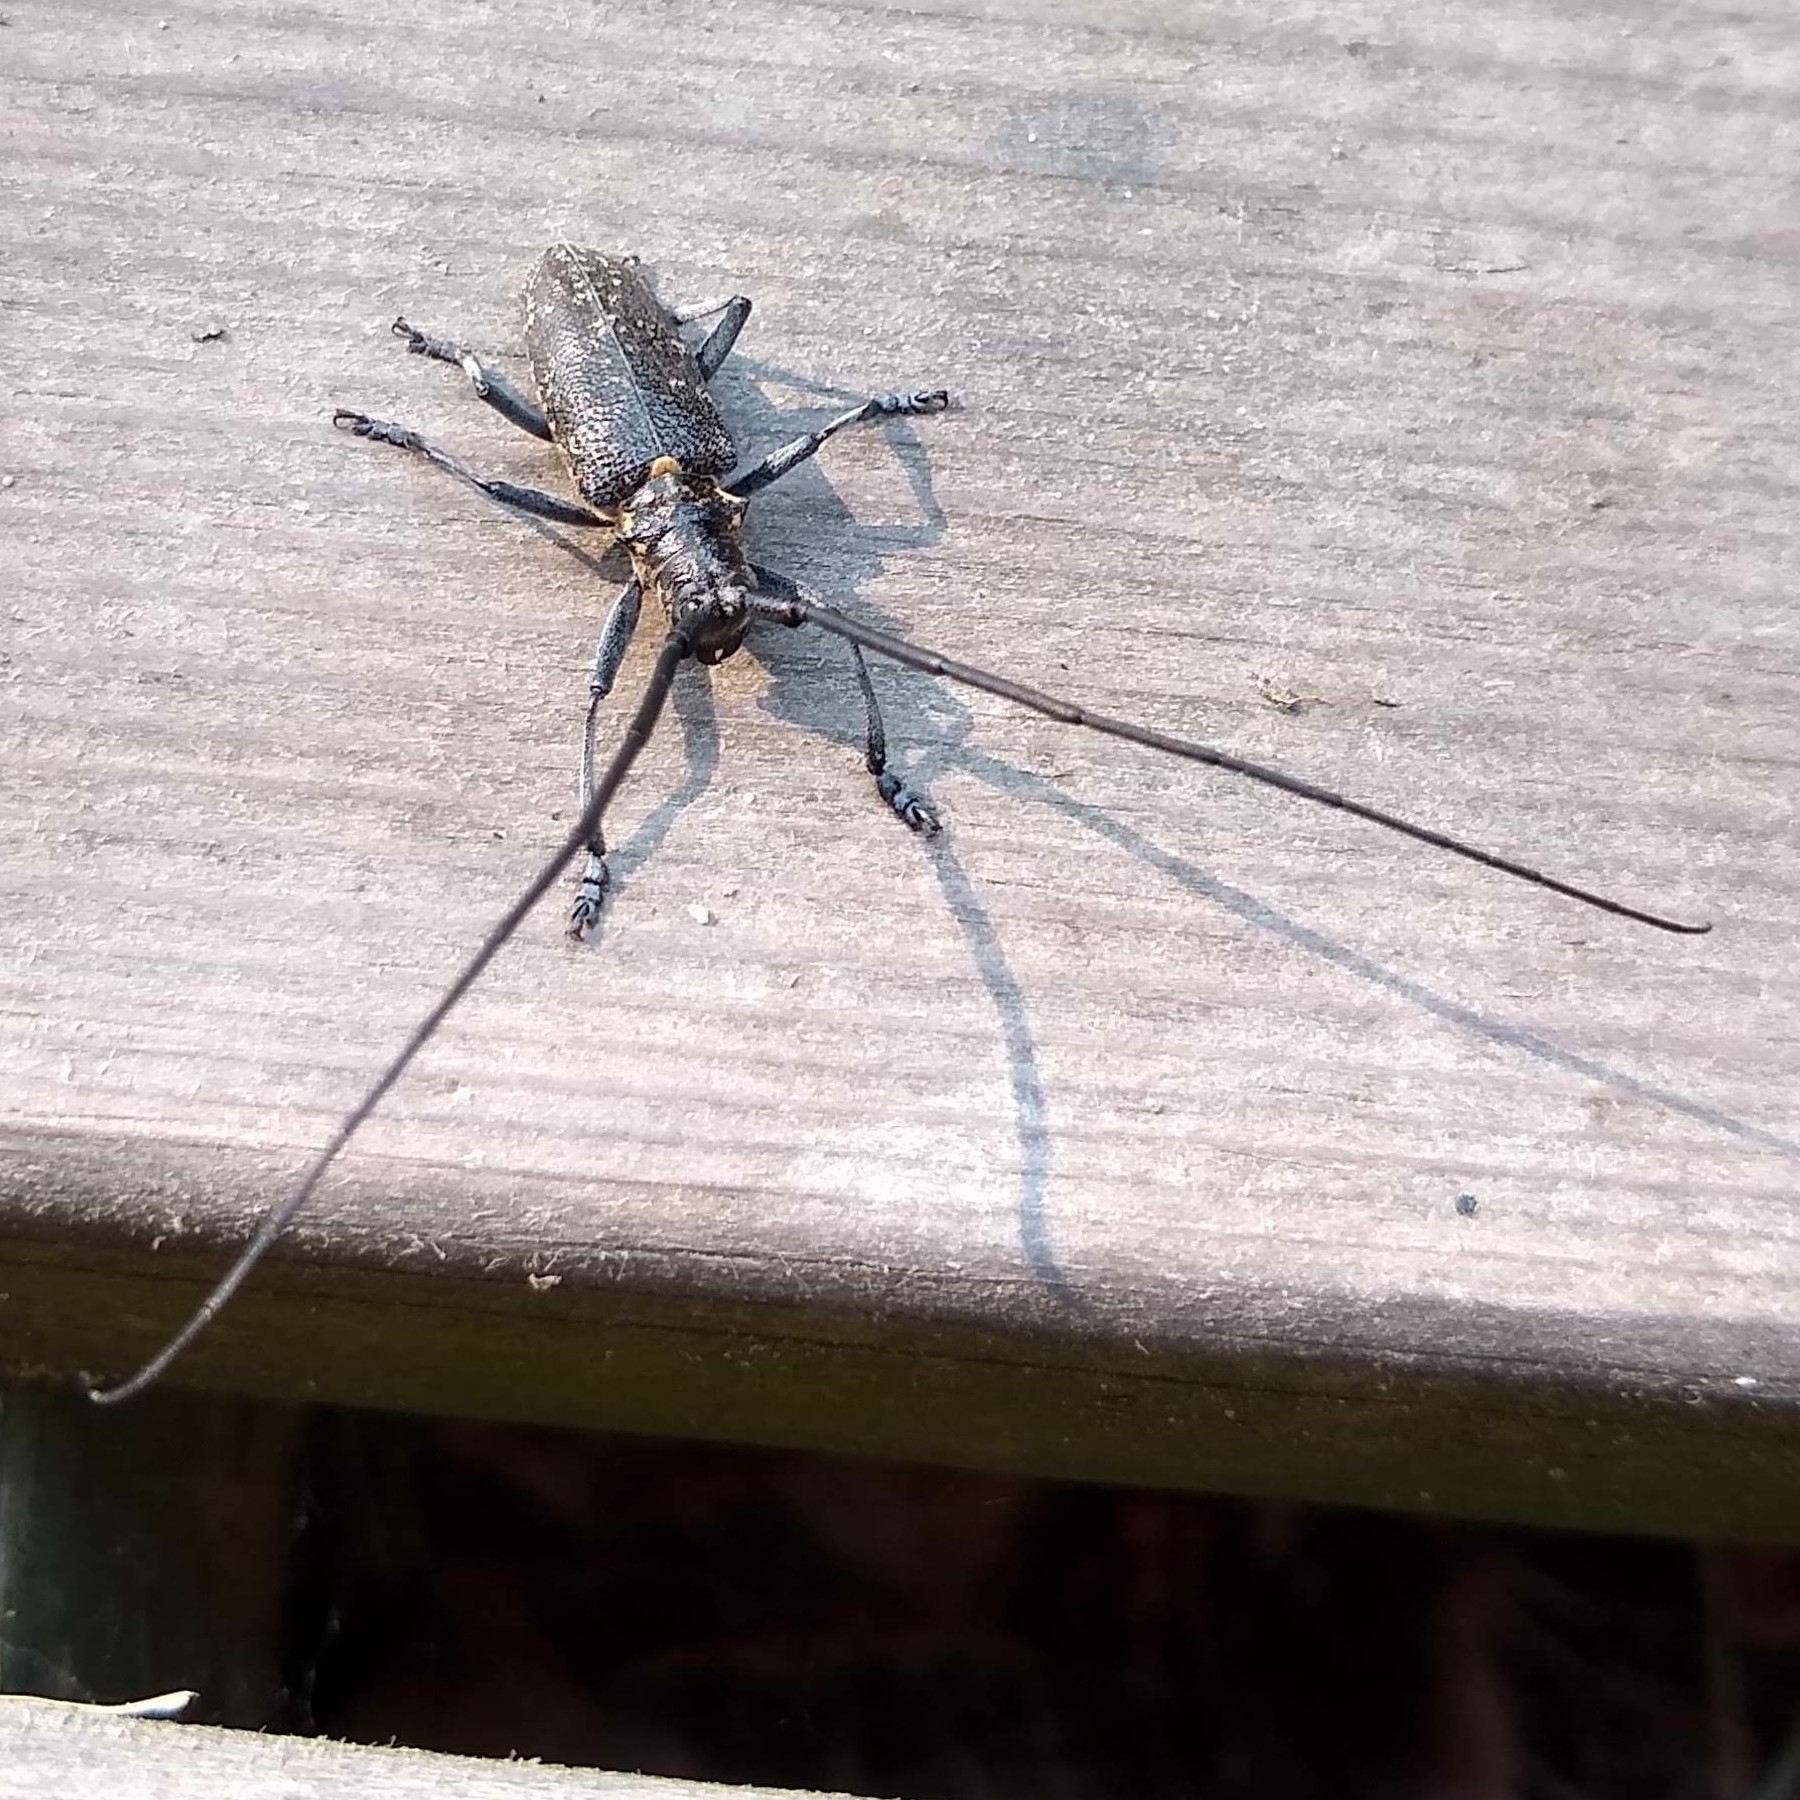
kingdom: Animalia
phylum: Arthropoda
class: Insecta
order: Coleoptera
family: Cerambycidae
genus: Monochamus
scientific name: Monochamus galloprovincialis
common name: Pine sawyer
